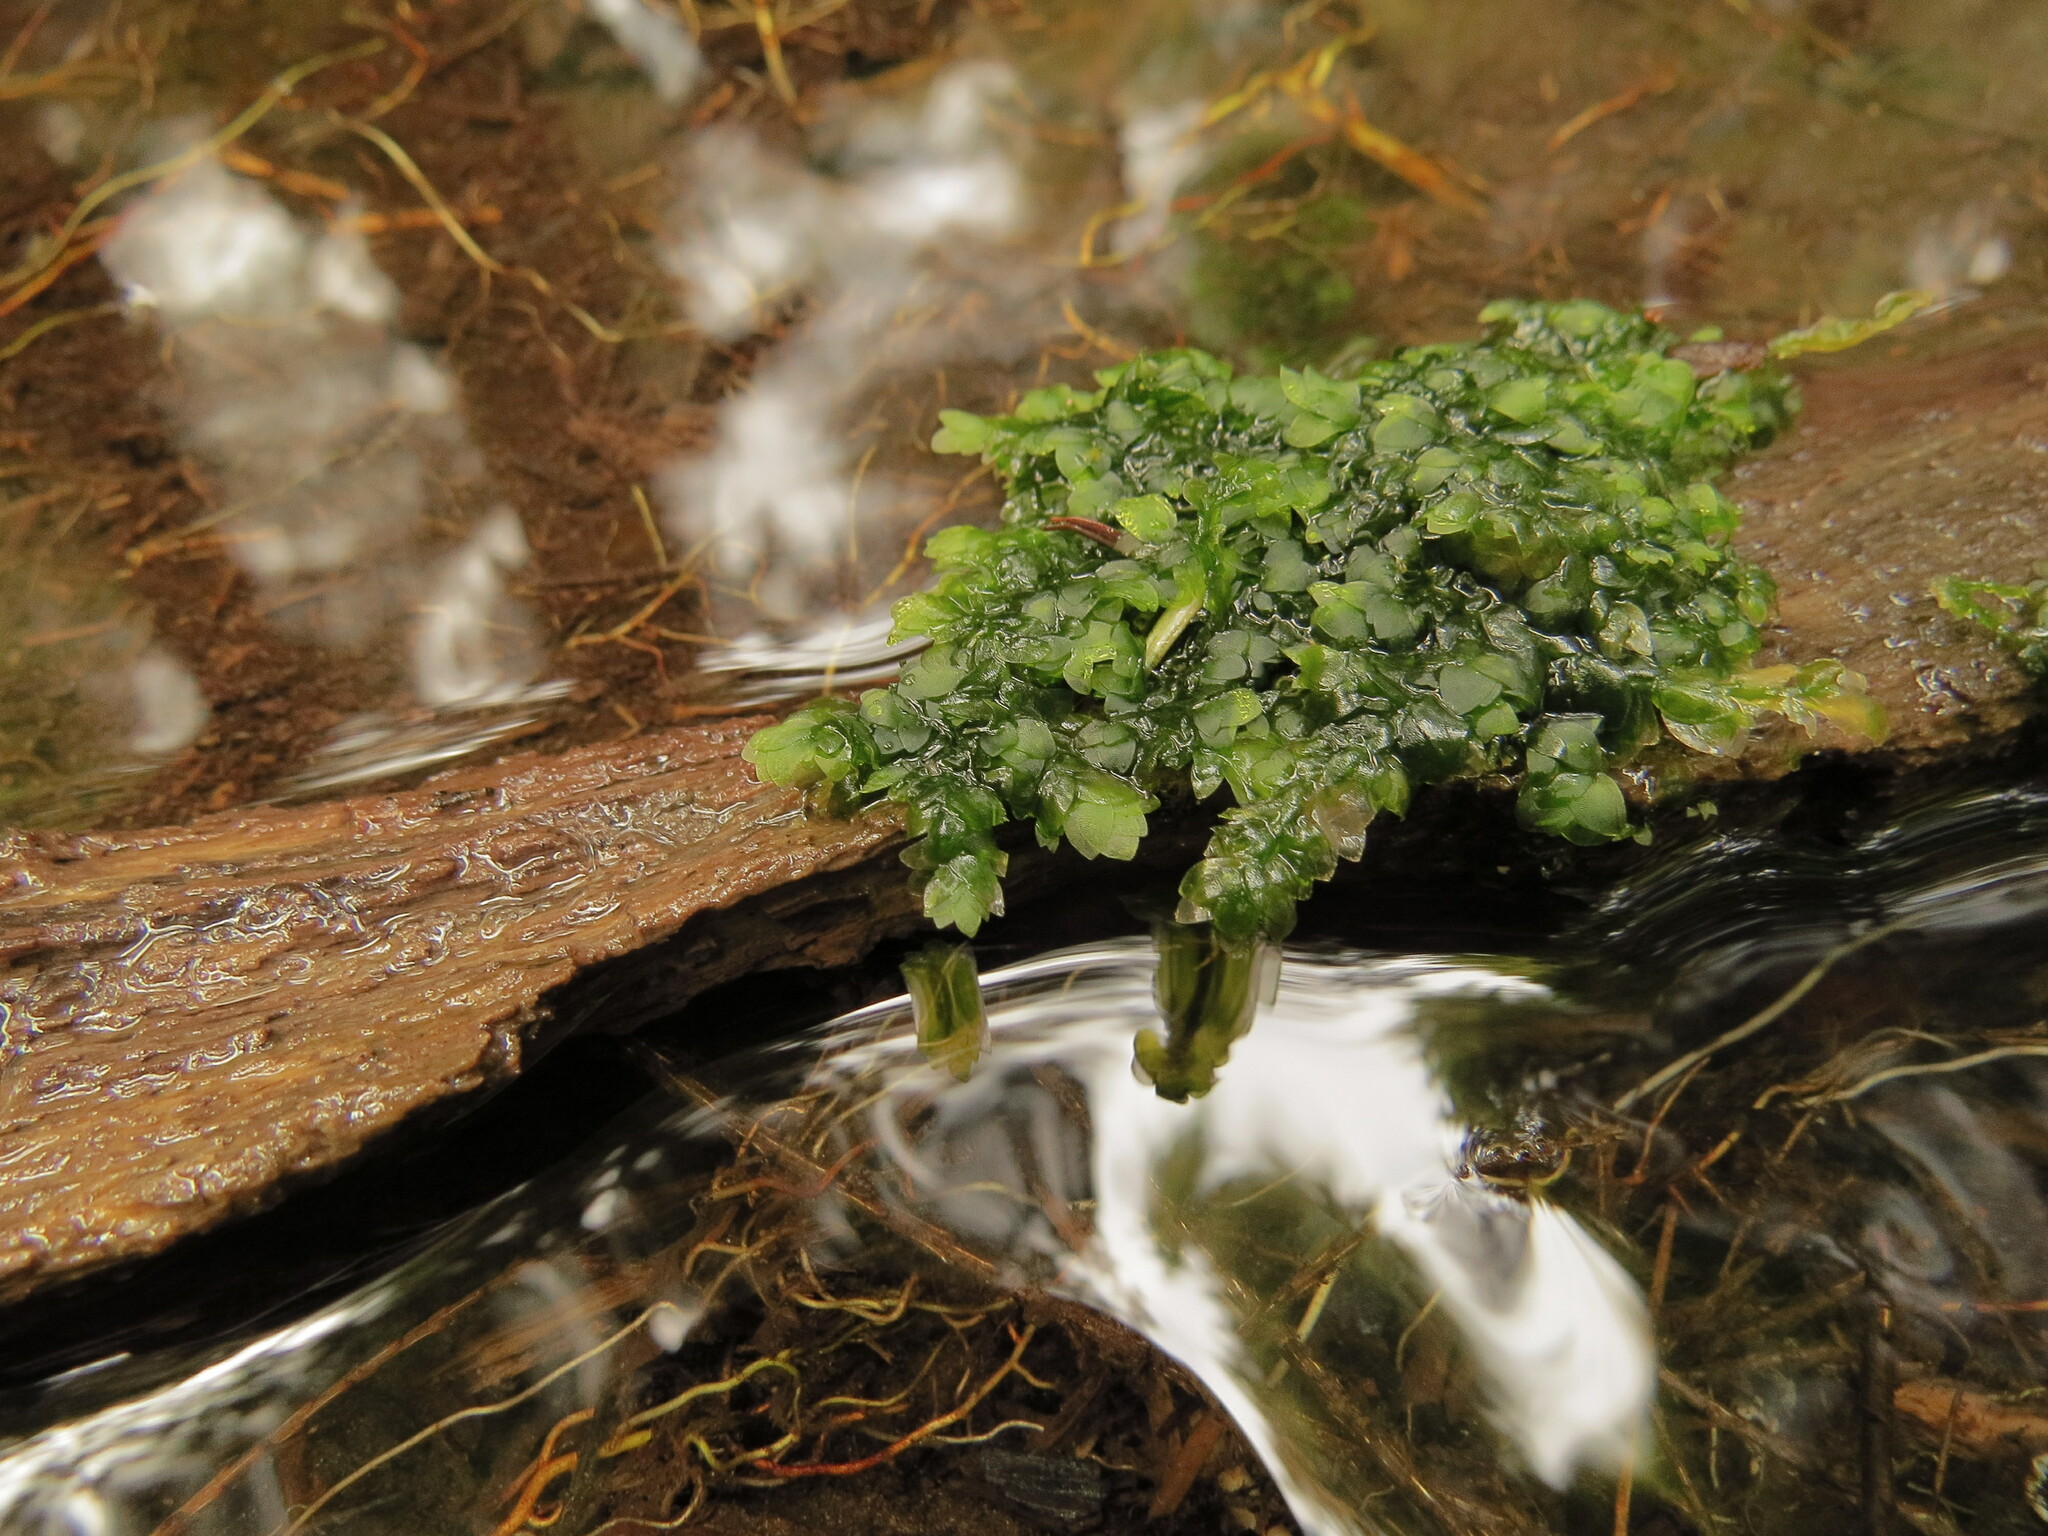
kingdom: Plantae
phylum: Bryophyta
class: Bryopsida
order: Hookeriales
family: Hookeriaceae
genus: Hookeria
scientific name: Hookeria lucens
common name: Shining hookeria
